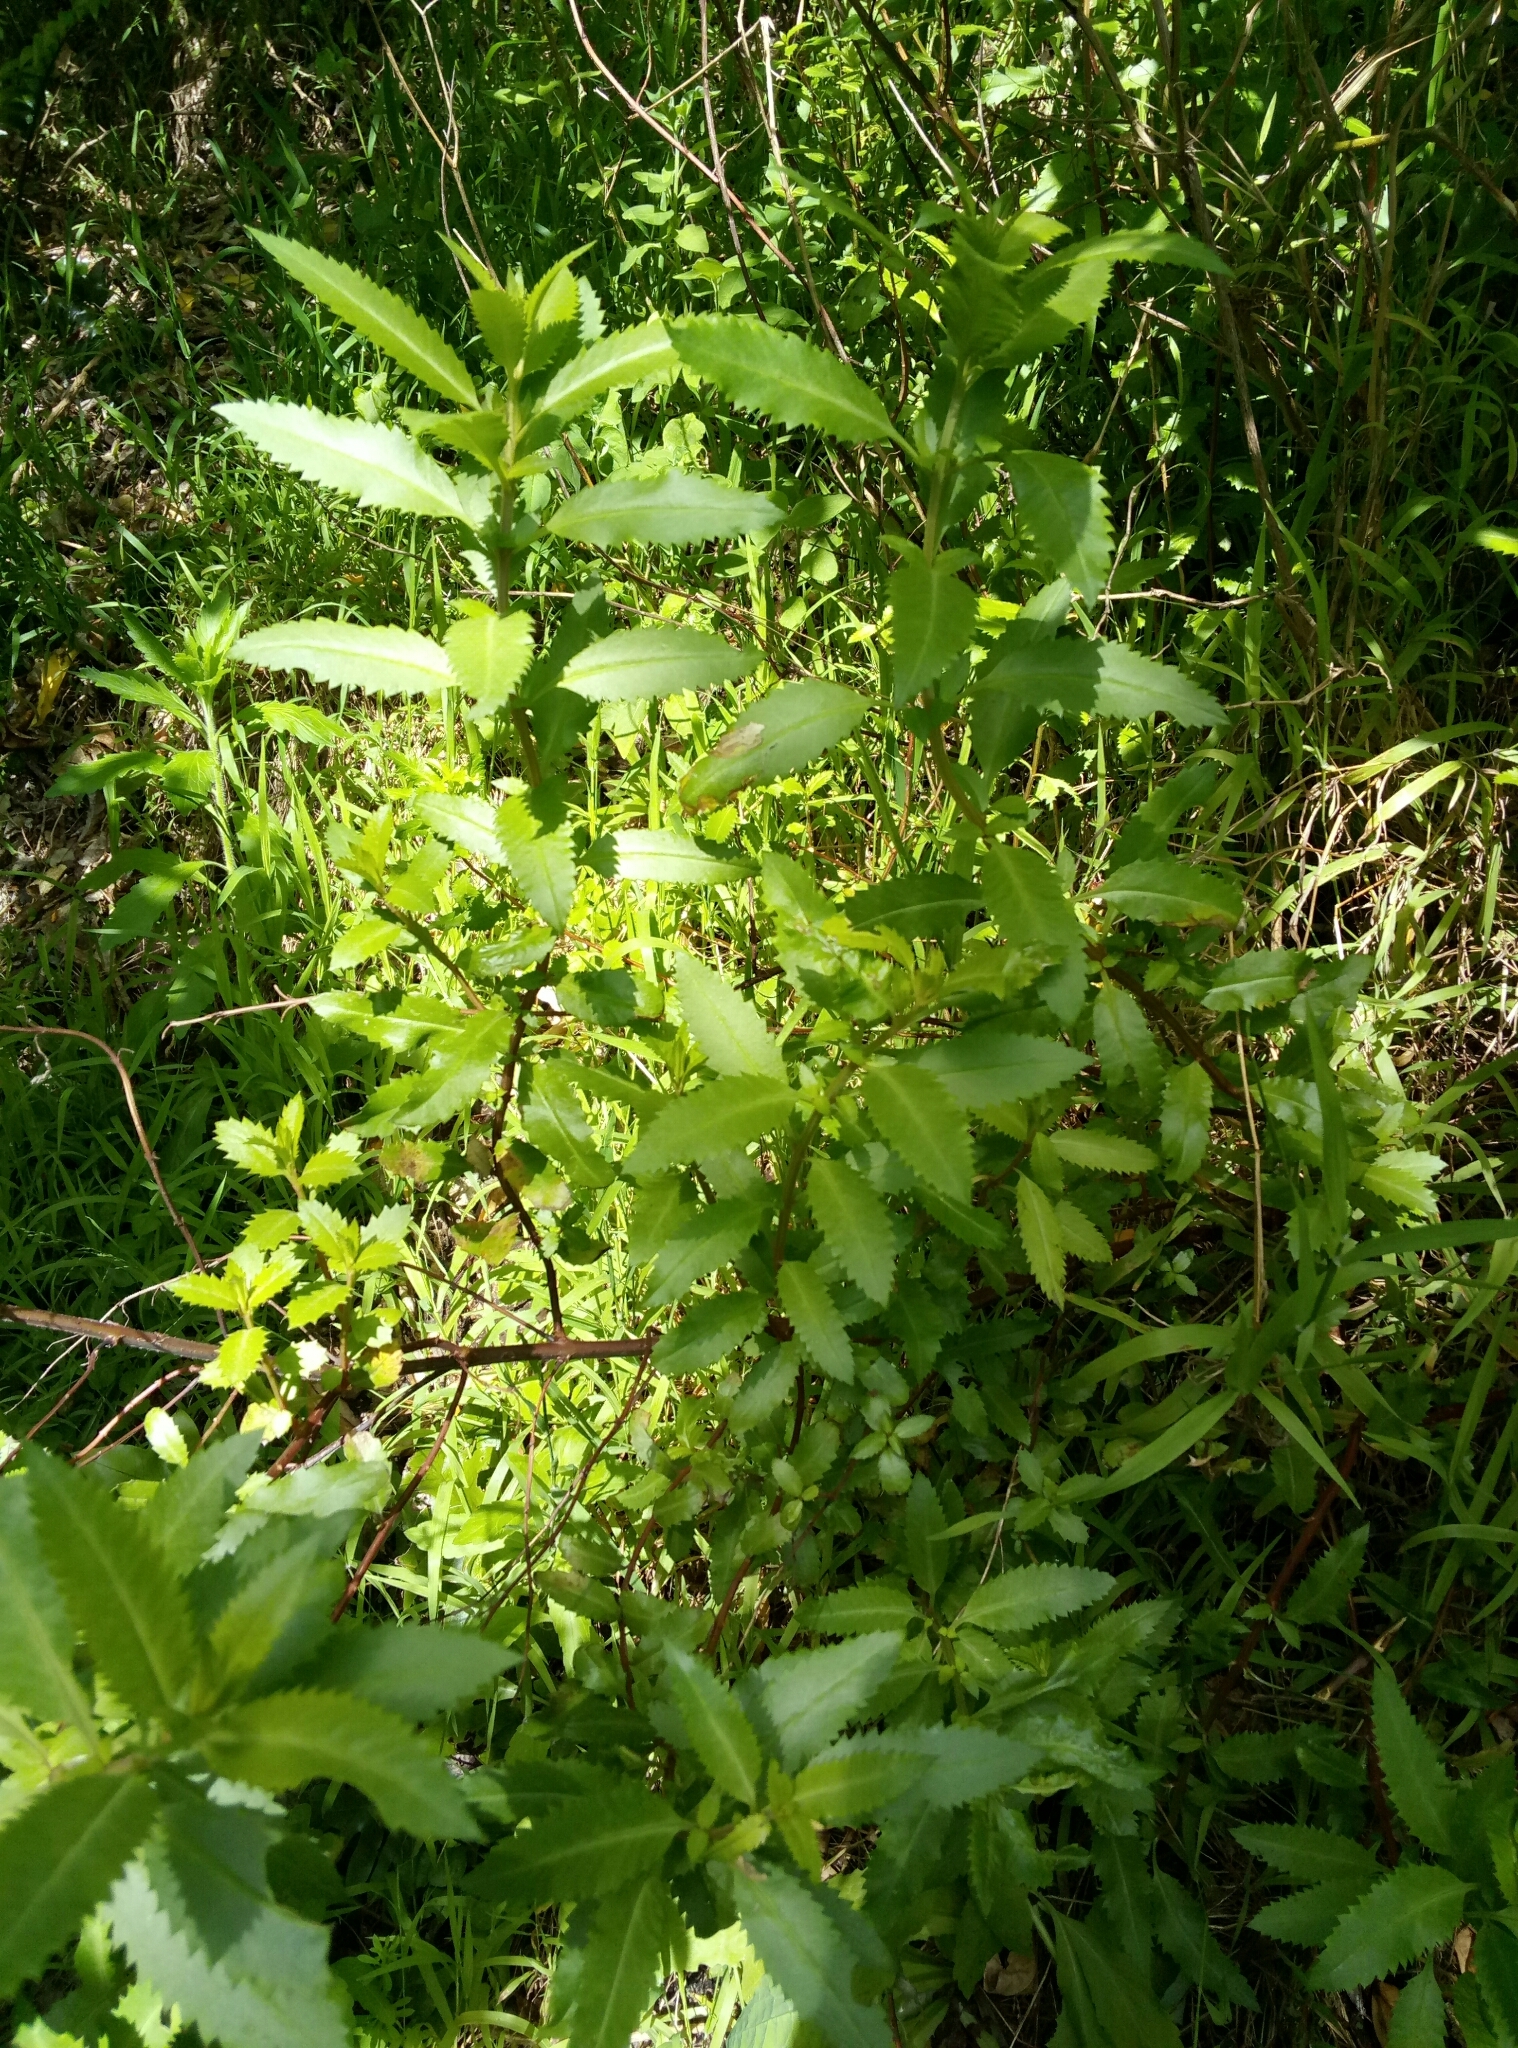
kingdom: Plantae
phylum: Tracheophyta
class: Magnoliopsida
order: Saxifragales
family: Haloragaceae
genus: Haloragis
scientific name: Haloragis erecta
